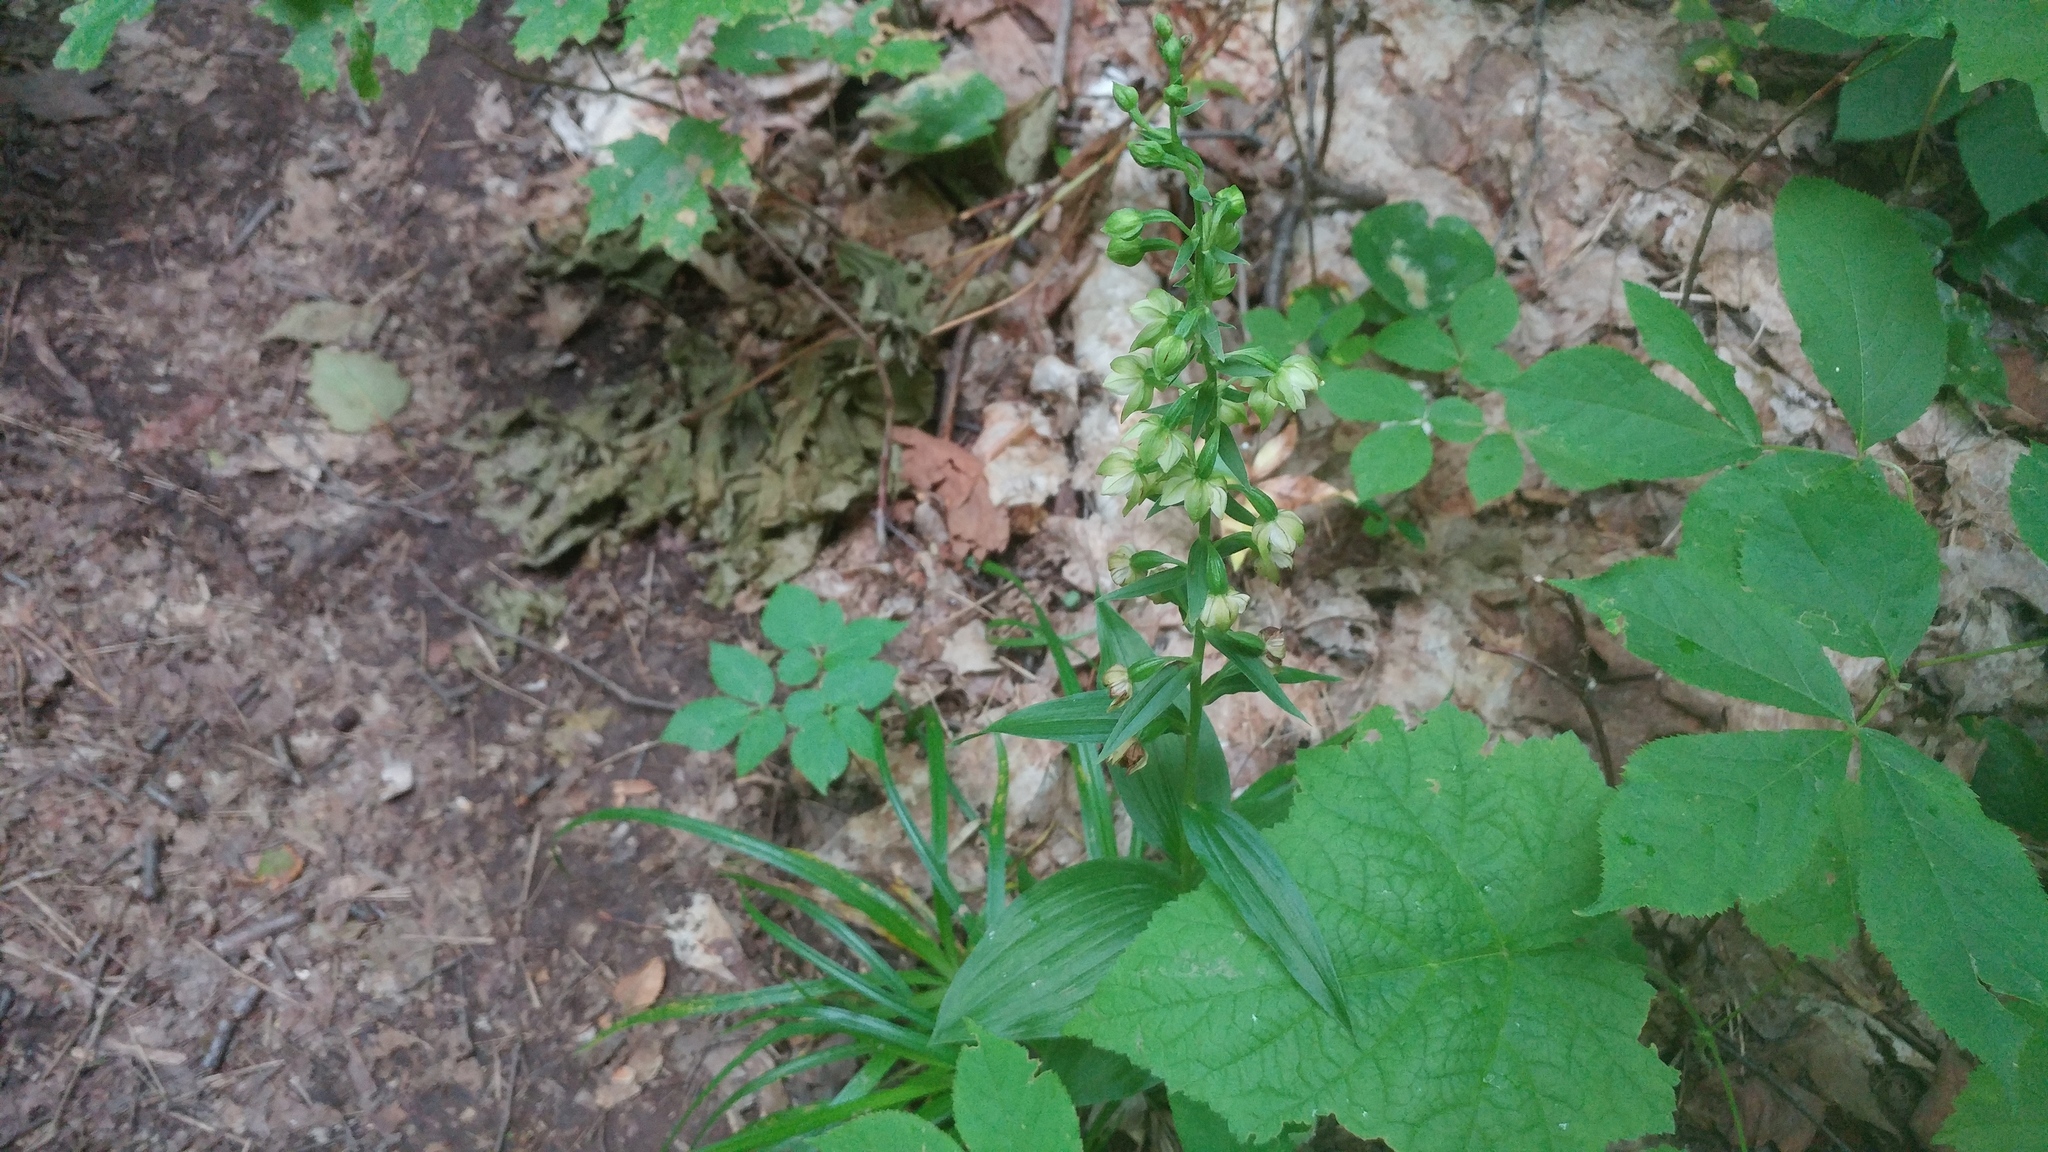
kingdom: Plantae
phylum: Tracheophyta
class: Liliopsida
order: Asparagales
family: Orchidaceae
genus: Epipactis
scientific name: Epipactis helleborine
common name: Broad-leaved helleborine
